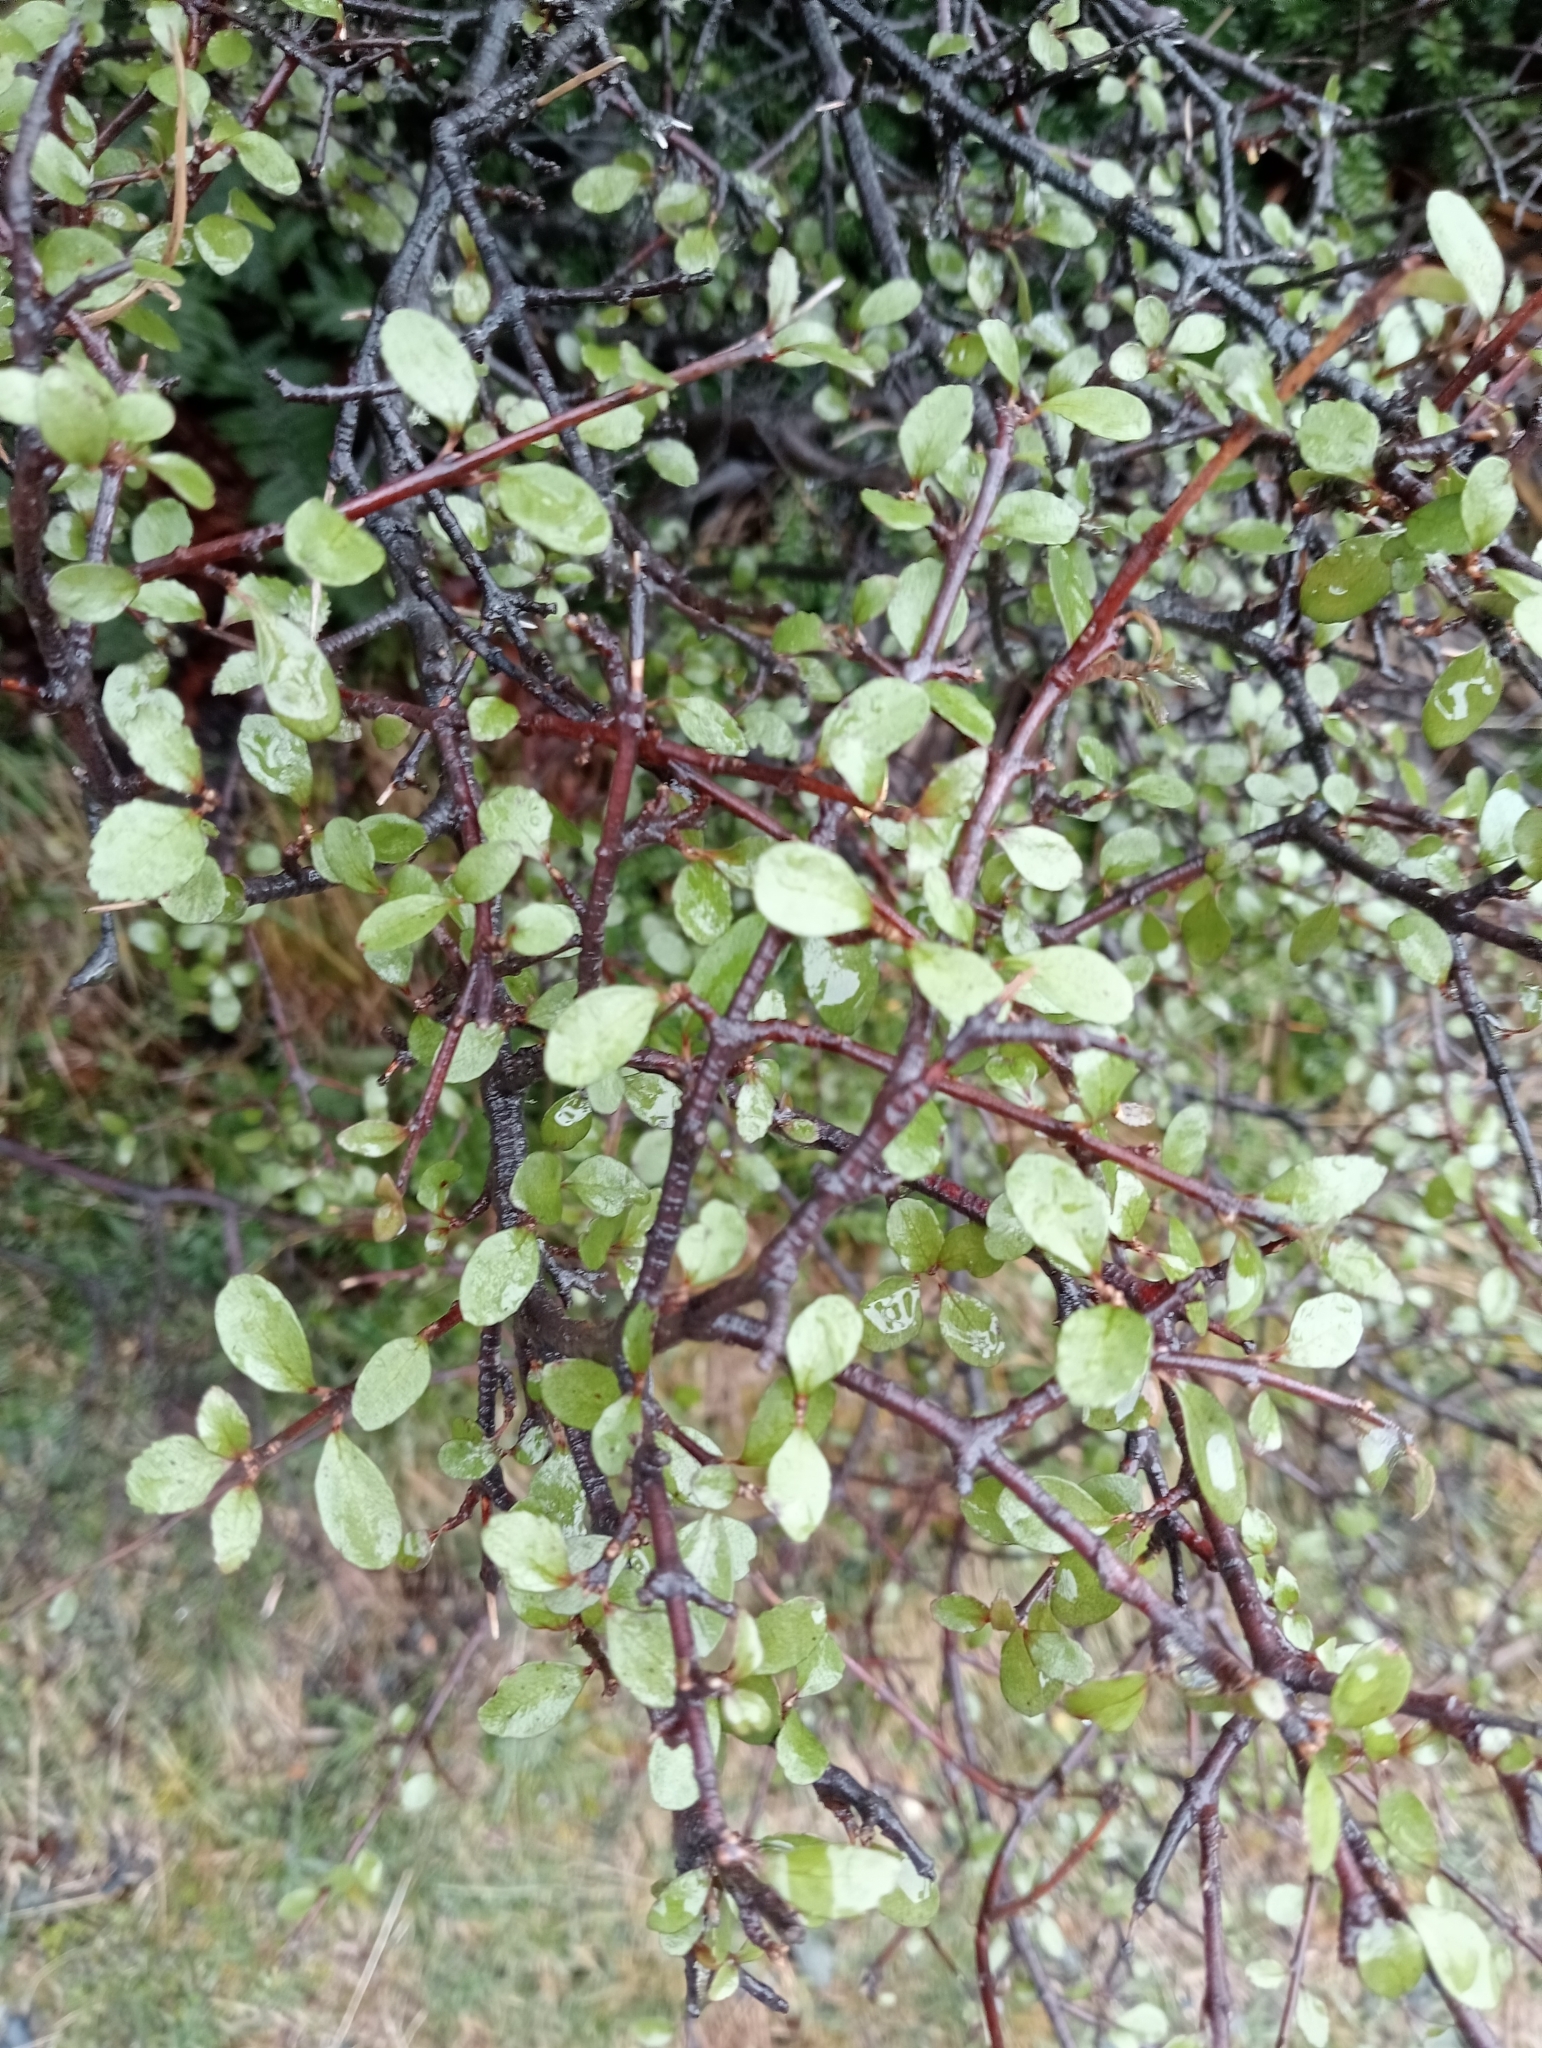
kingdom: Plantae
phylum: Tracheophyta
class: Magnoliopsida
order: Oxalidales
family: Elaeocarpaceae
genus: Aristotelia
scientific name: Aristotelia fruticosa
